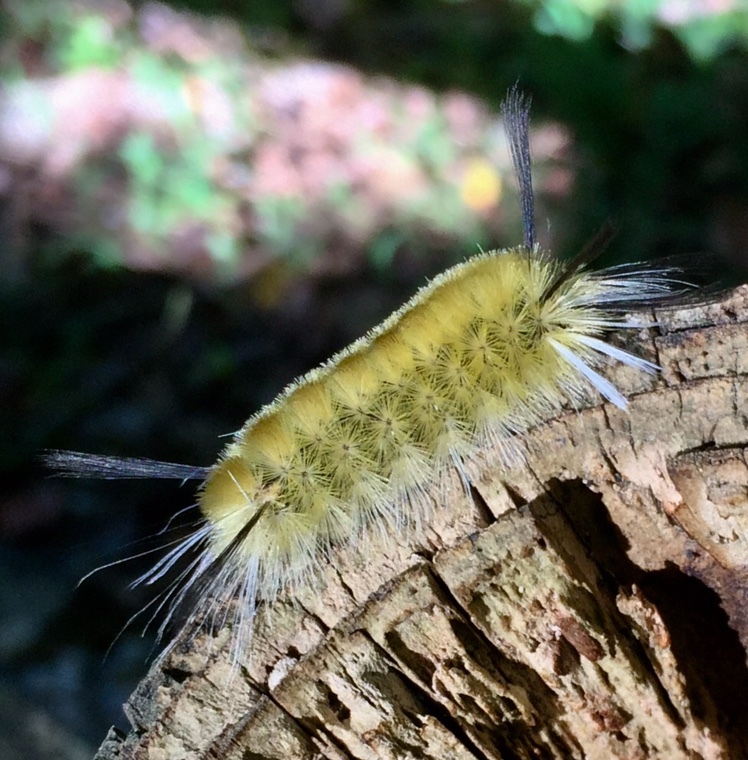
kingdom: Animalia
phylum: Arthropoda
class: Insecta
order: Lepidoptera
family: Erebidae
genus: Halysidota
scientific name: Halysidota tessellaris
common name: Banded tussock moth
